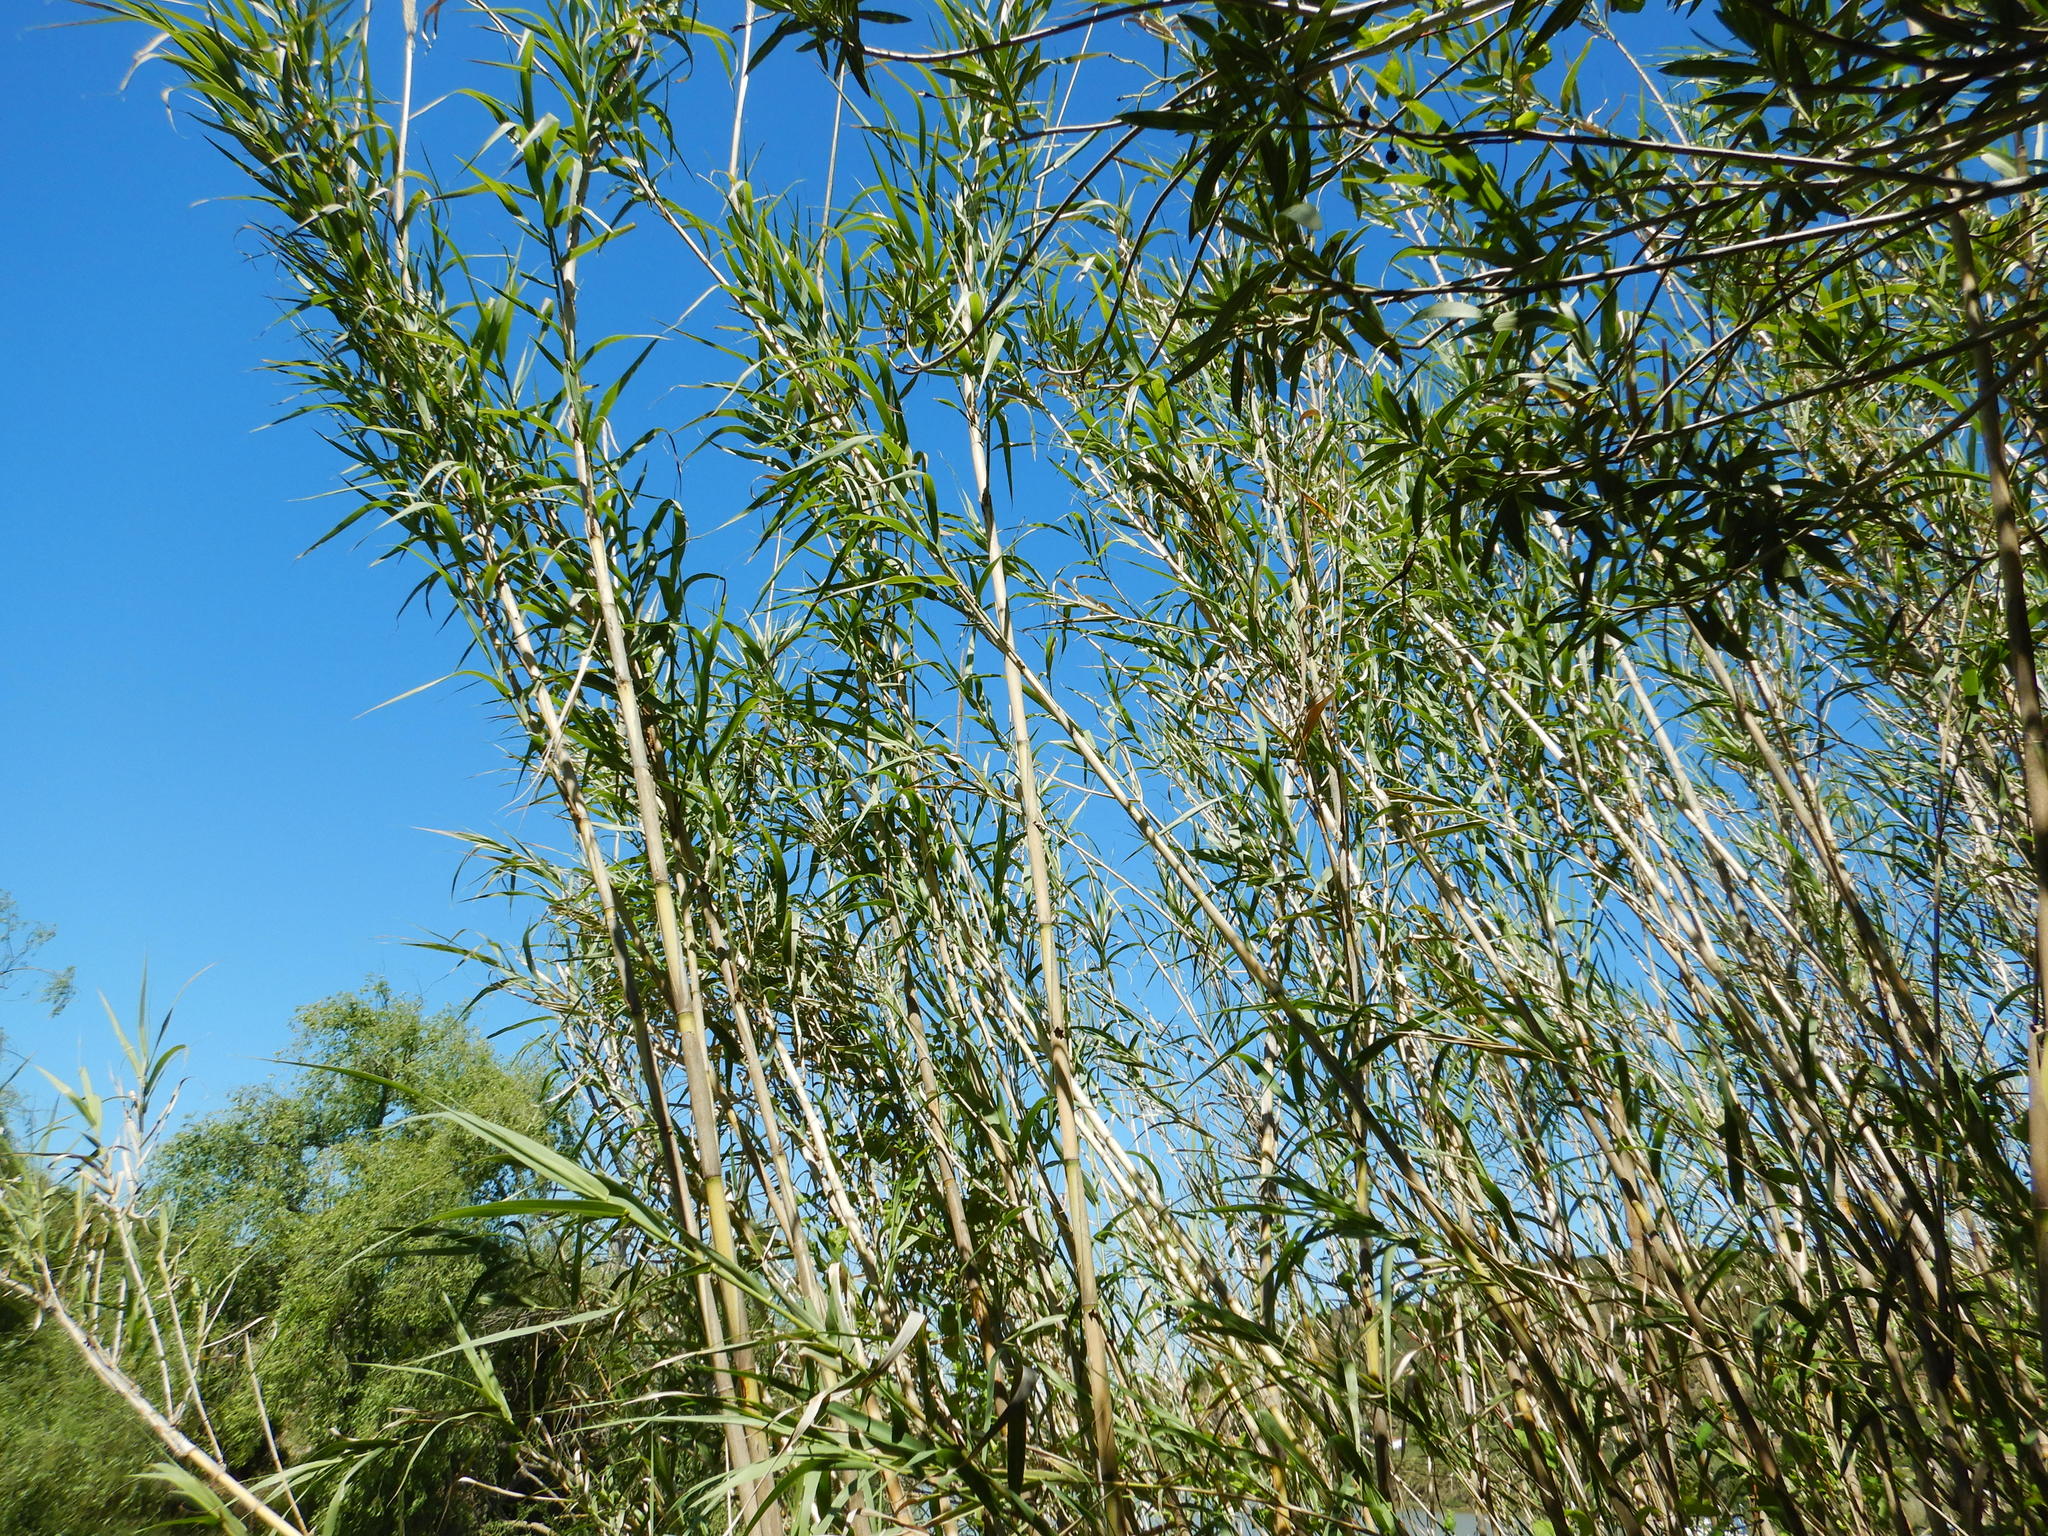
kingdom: Plantae
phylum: Tracheophyta
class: Liliopsida
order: Poales
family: Poaceae
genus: Arundo
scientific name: Arundo donax
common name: Giant reed
